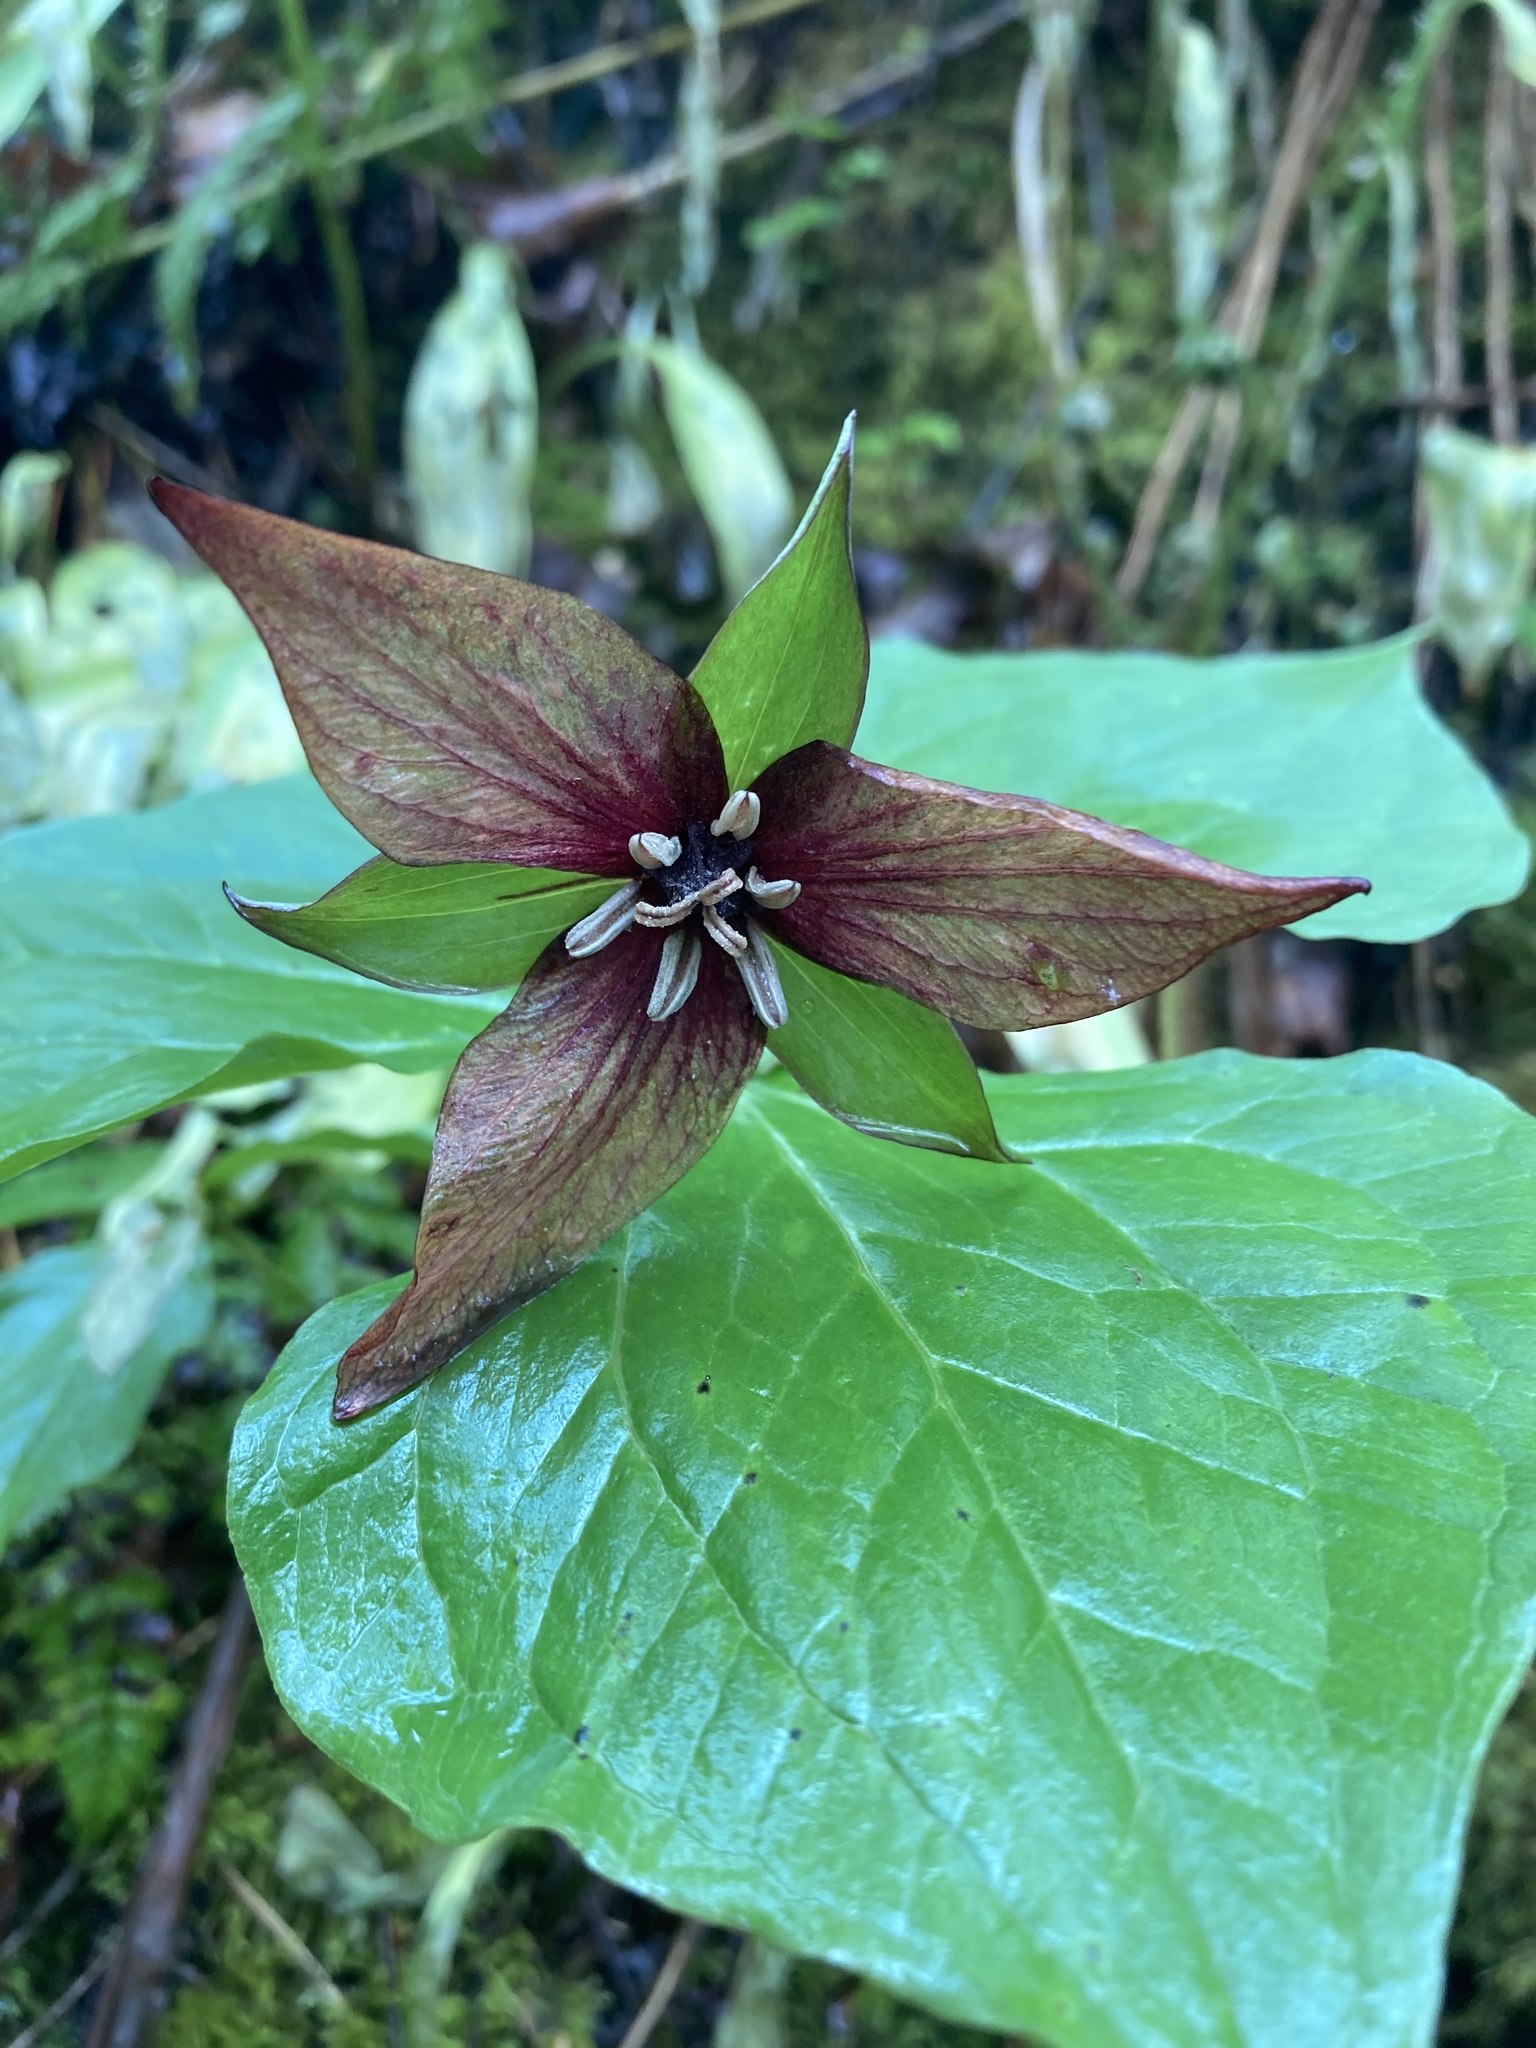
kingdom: Plantae
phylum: Tracheophyta
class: Liliopsida
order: Liliales
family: Melanthiaceae
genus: Trillium
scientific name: Trillium erectum
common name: Purple trillium
